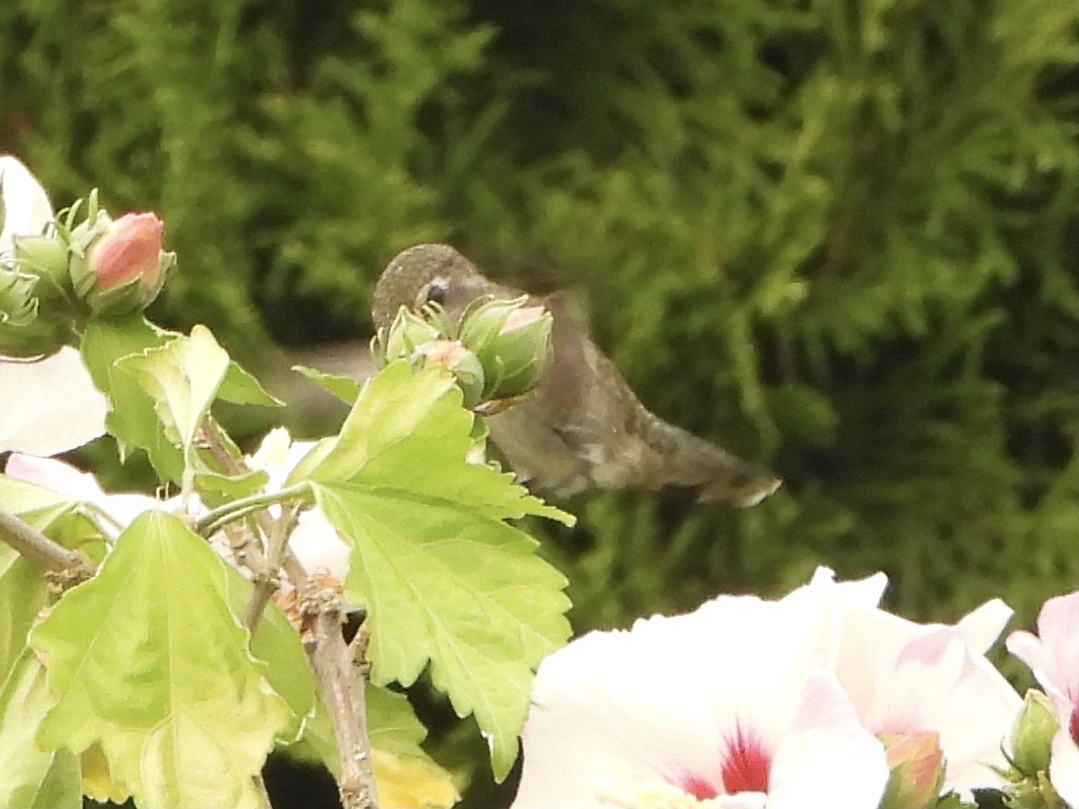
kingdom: Animalia
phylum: Chordata
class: Aves
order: Apodiformes
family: Trochilidae
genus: Calypte
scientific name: Calypte anna
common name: Anna's hummingbird
